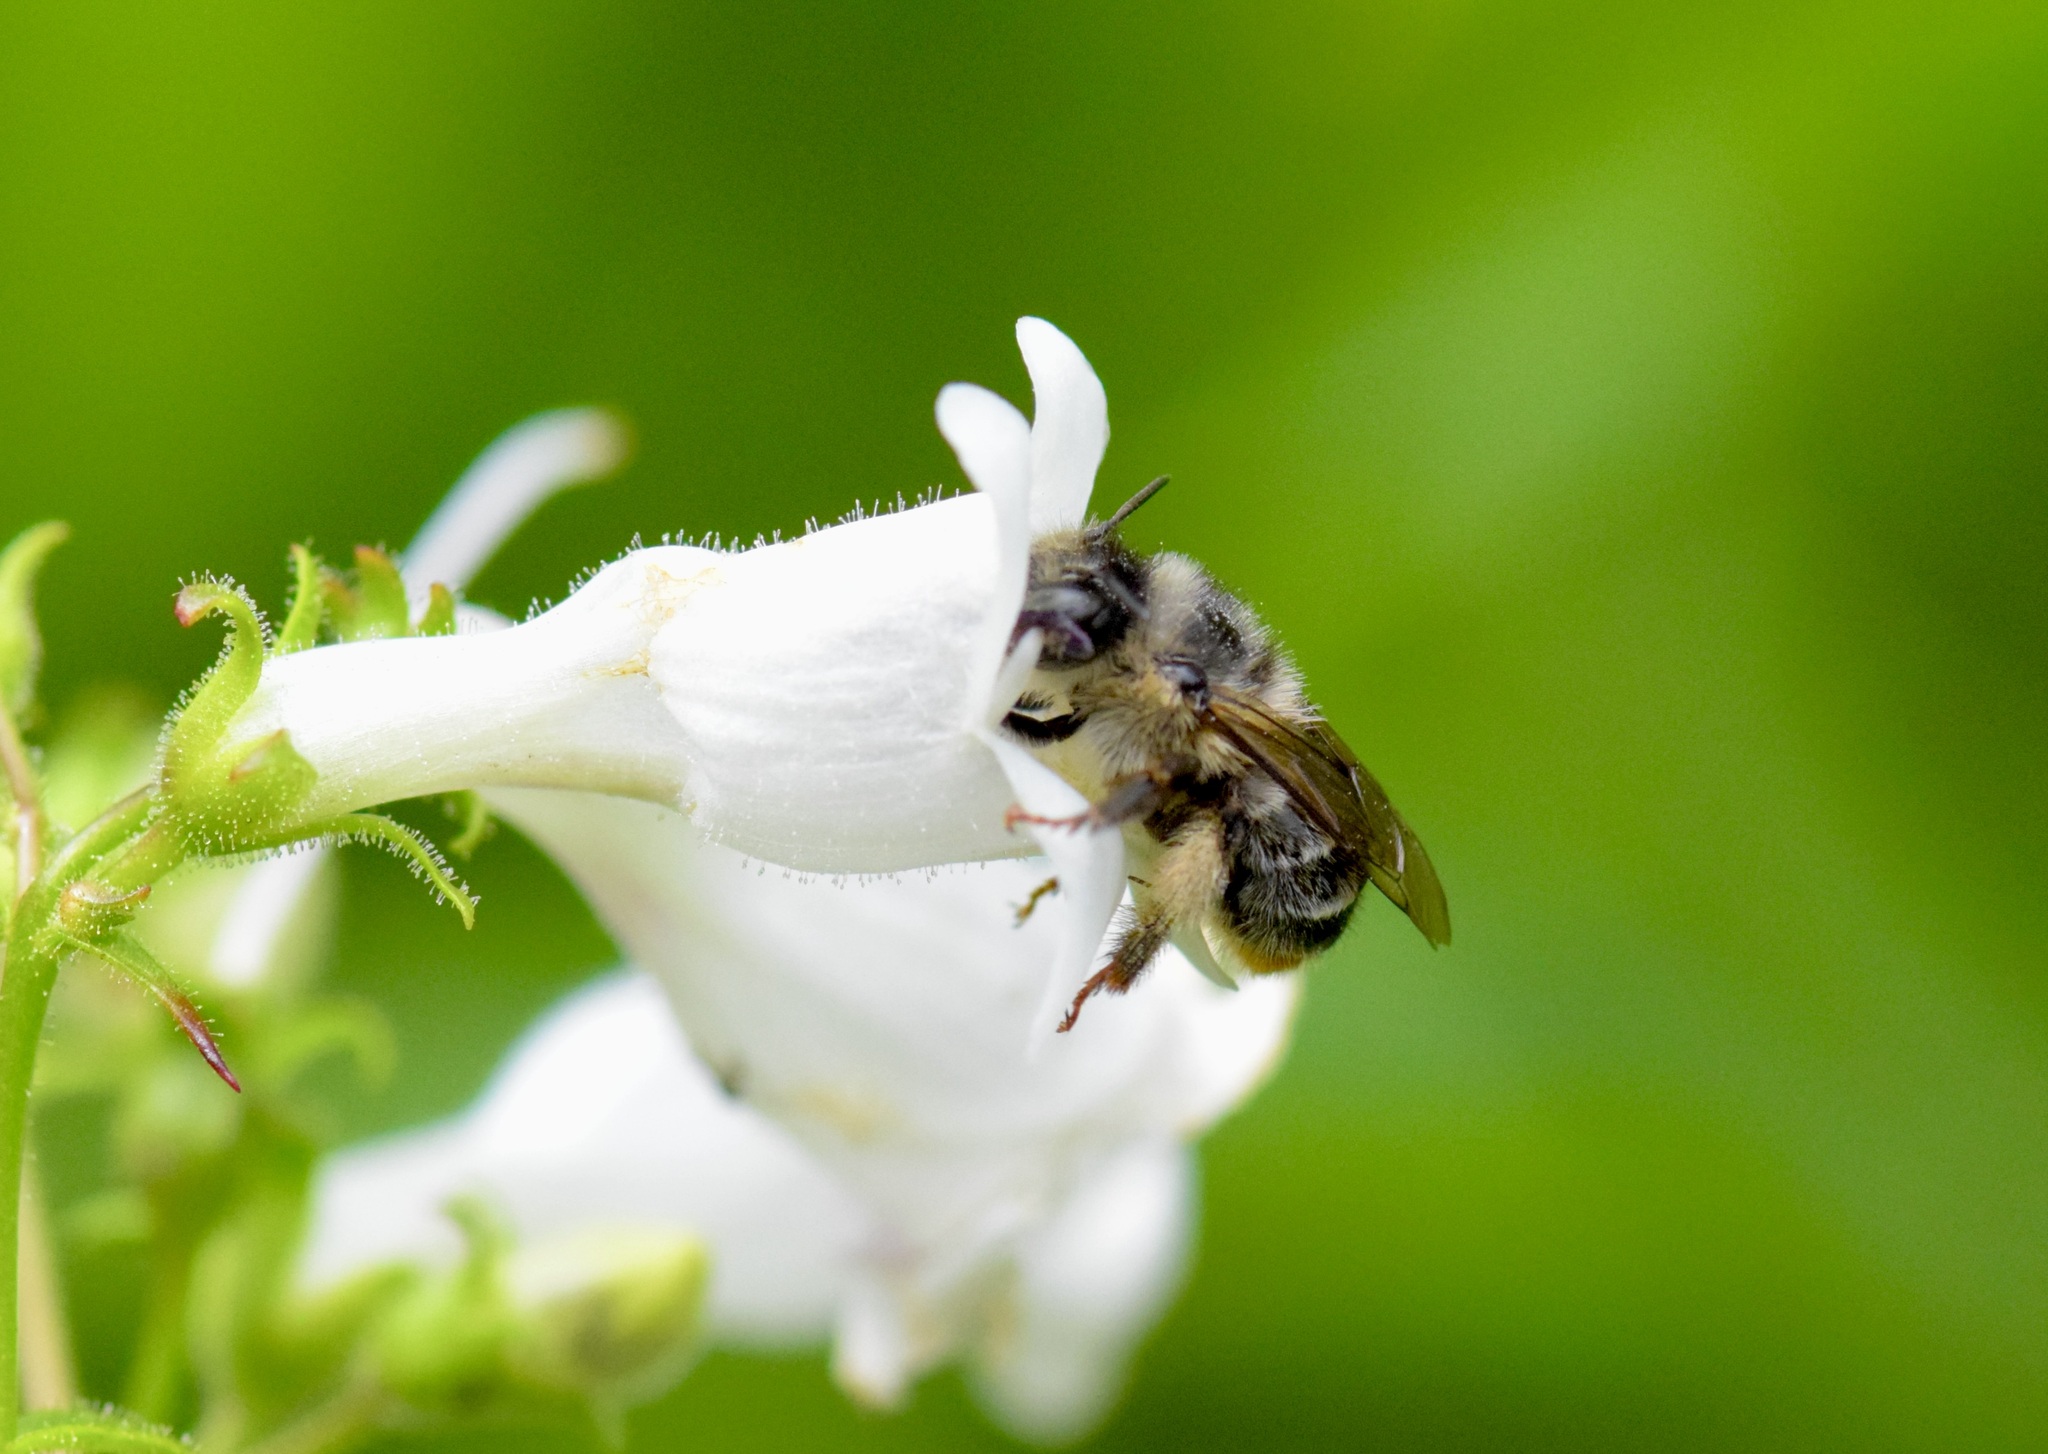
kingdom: Animalia
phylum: Arthropoda
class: Insecta
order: Hymenoptera
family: Apidae
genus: Anthophora
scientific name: Anthophora terminalis
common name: Orange-tipped wood-digger bee
